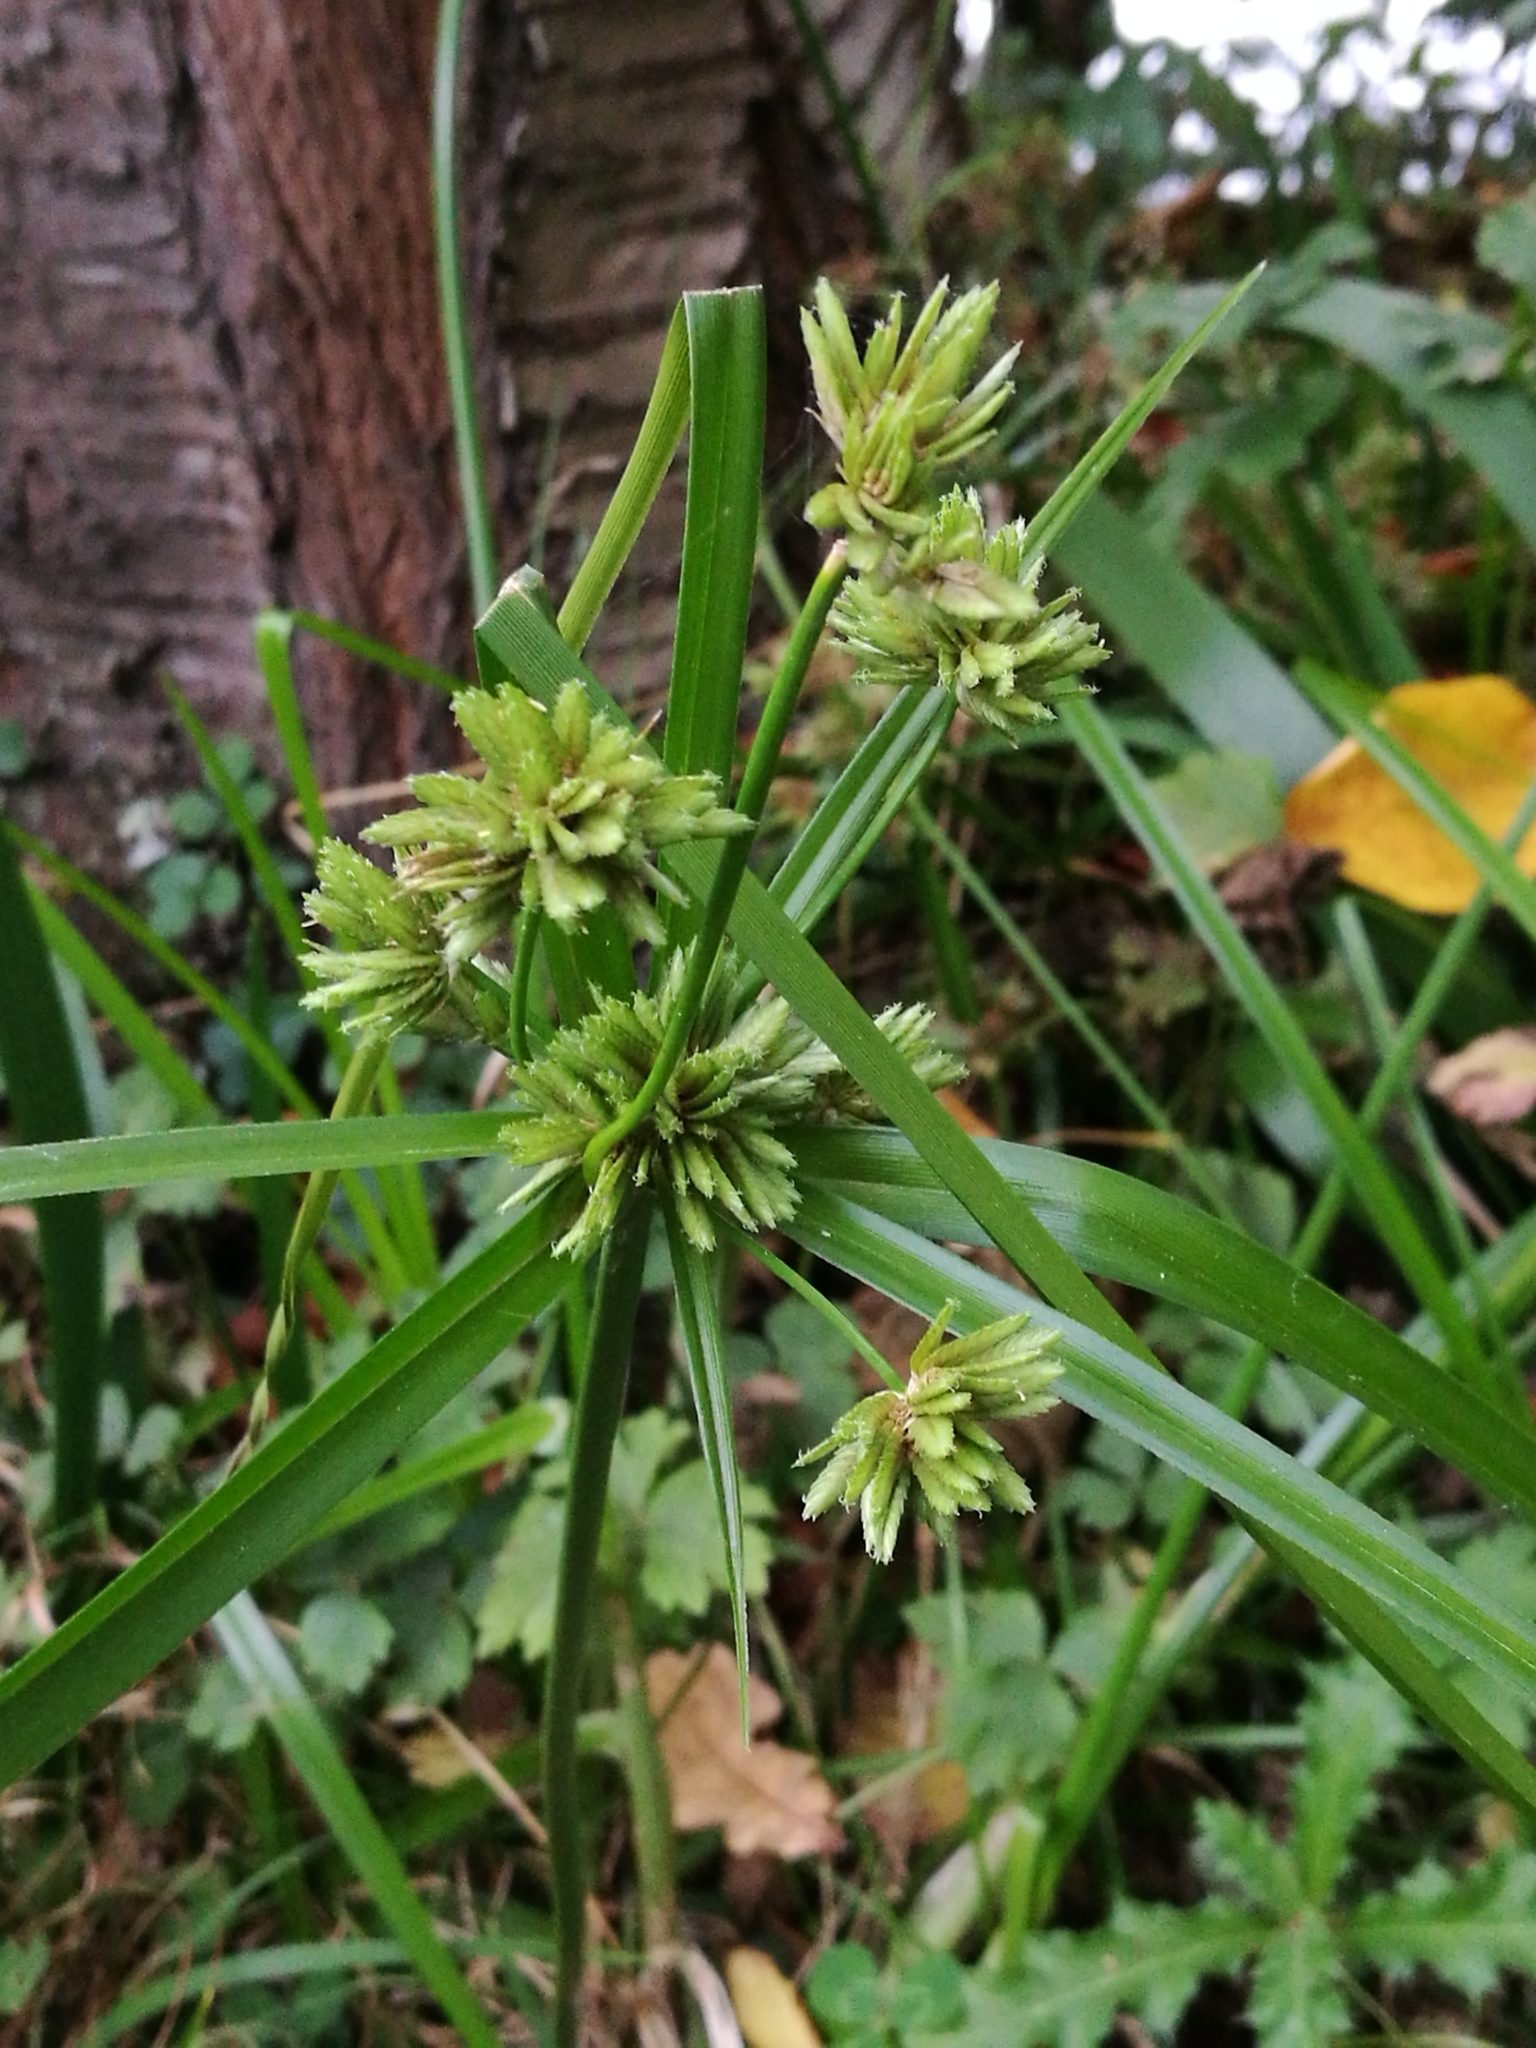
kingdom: Plantae
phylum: Tracheophyta
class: Liliopsida
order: Poales
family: Cyperaceae
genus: Cyperus
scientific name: Cyperus eragrostis
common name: Tall flatsedge
